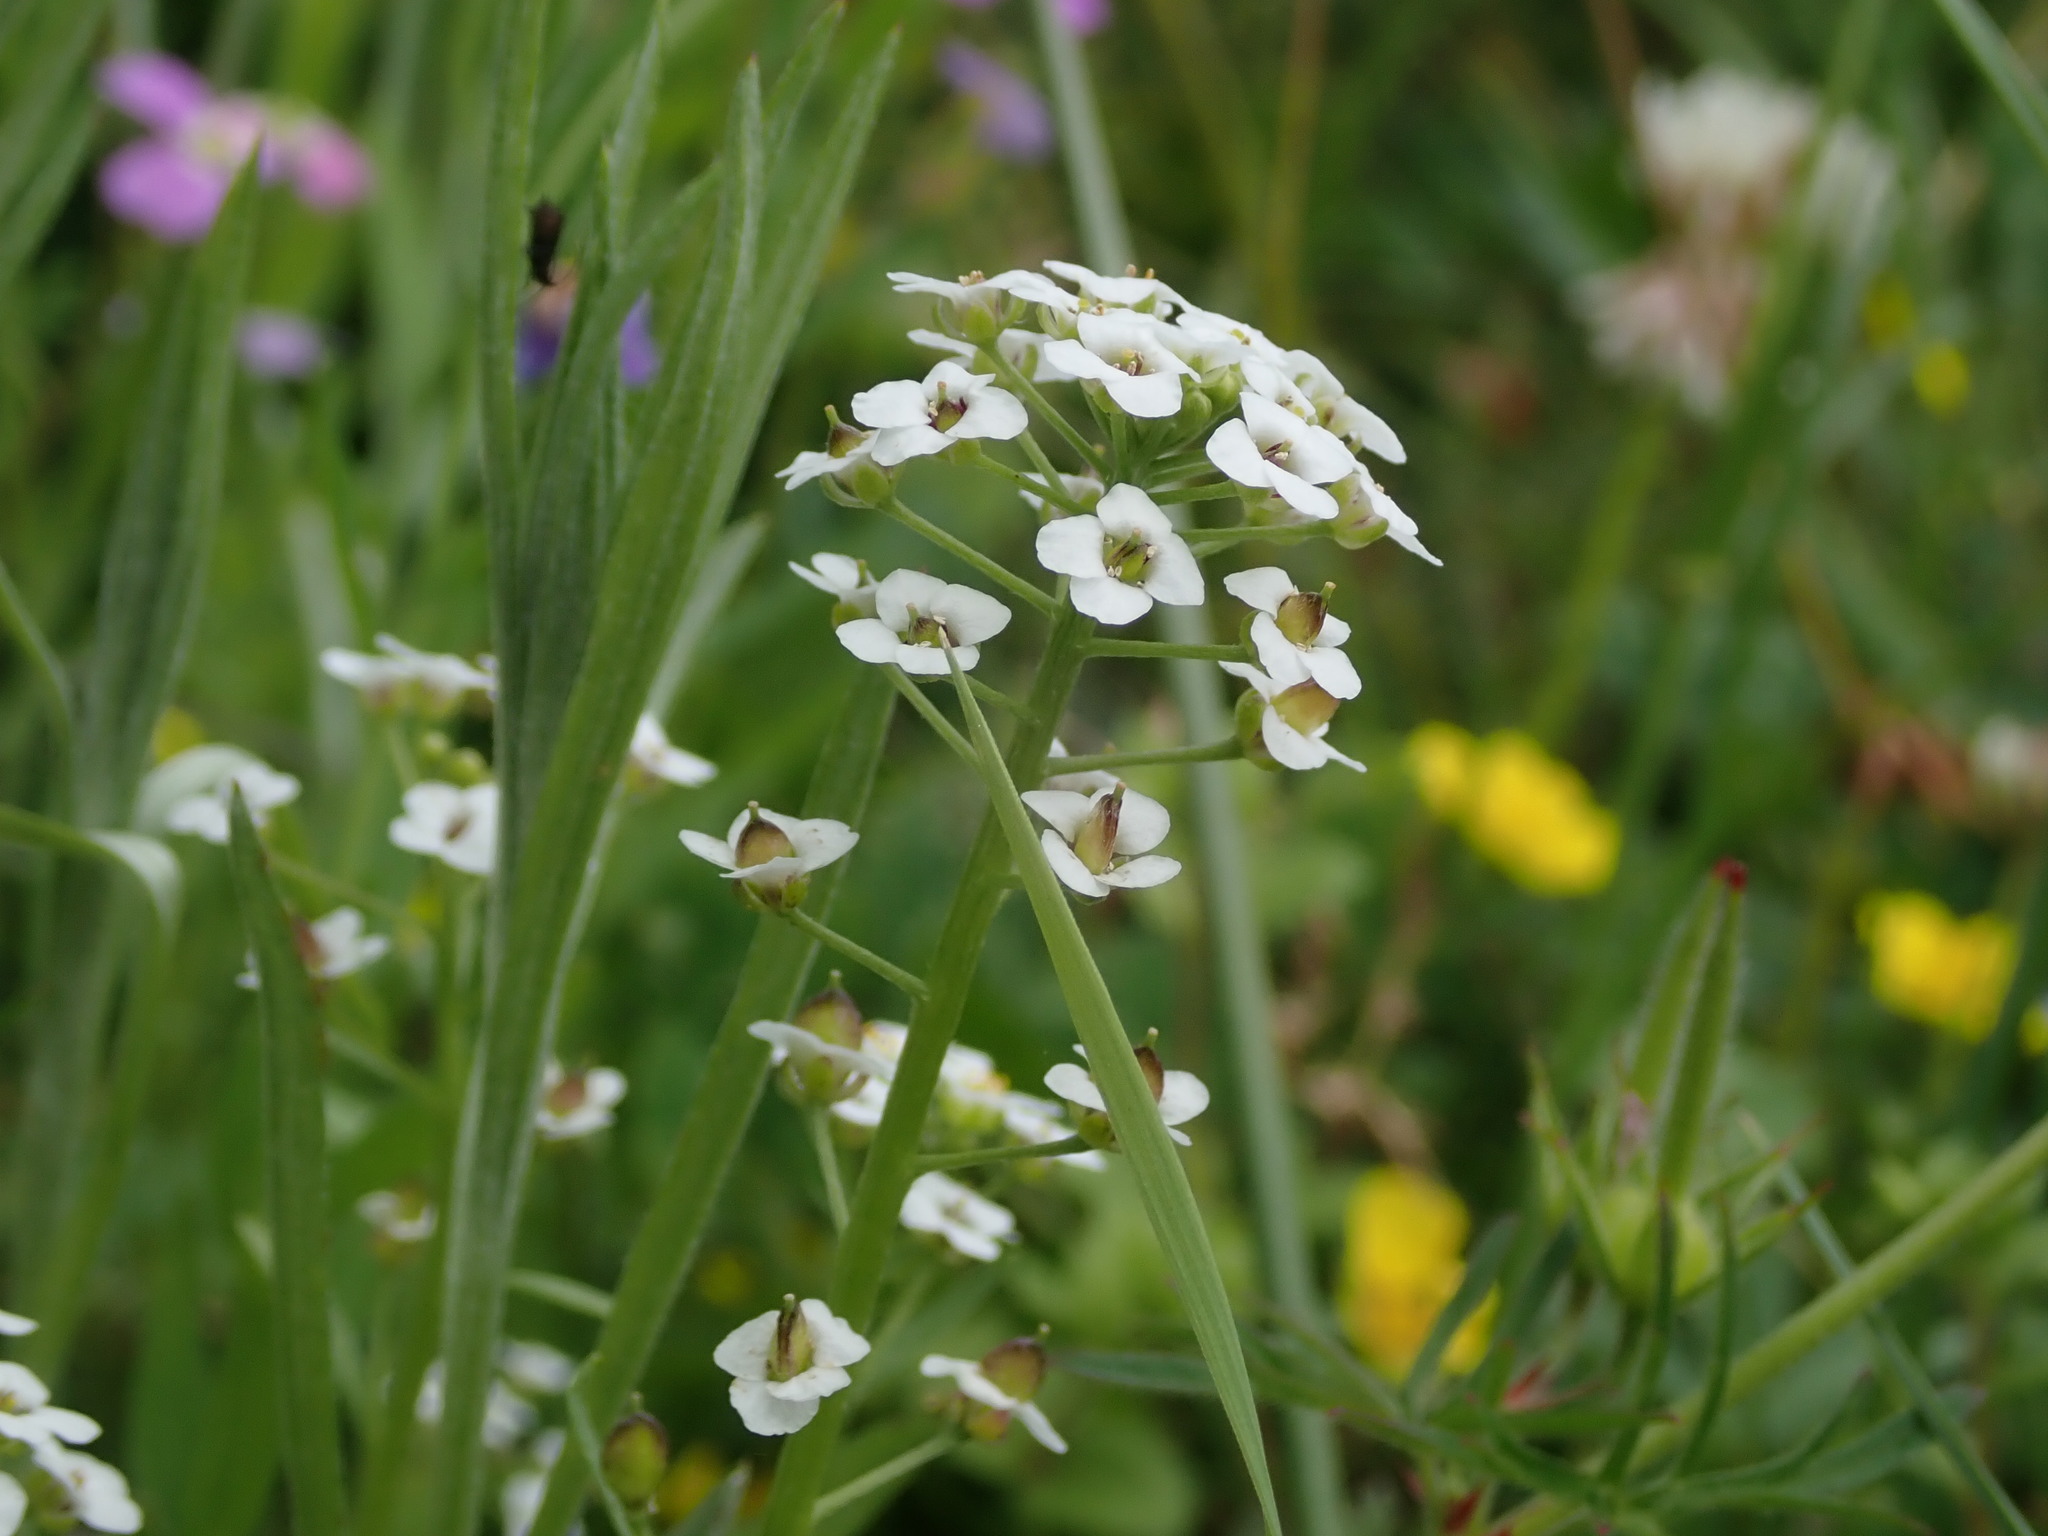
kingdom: Plantae
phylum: Tracheophyta
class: Magnoliopsida
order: Brassicales
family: Brassicaceae
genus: Lobularia
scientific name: Lobularia maritima
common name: Sweet alison
